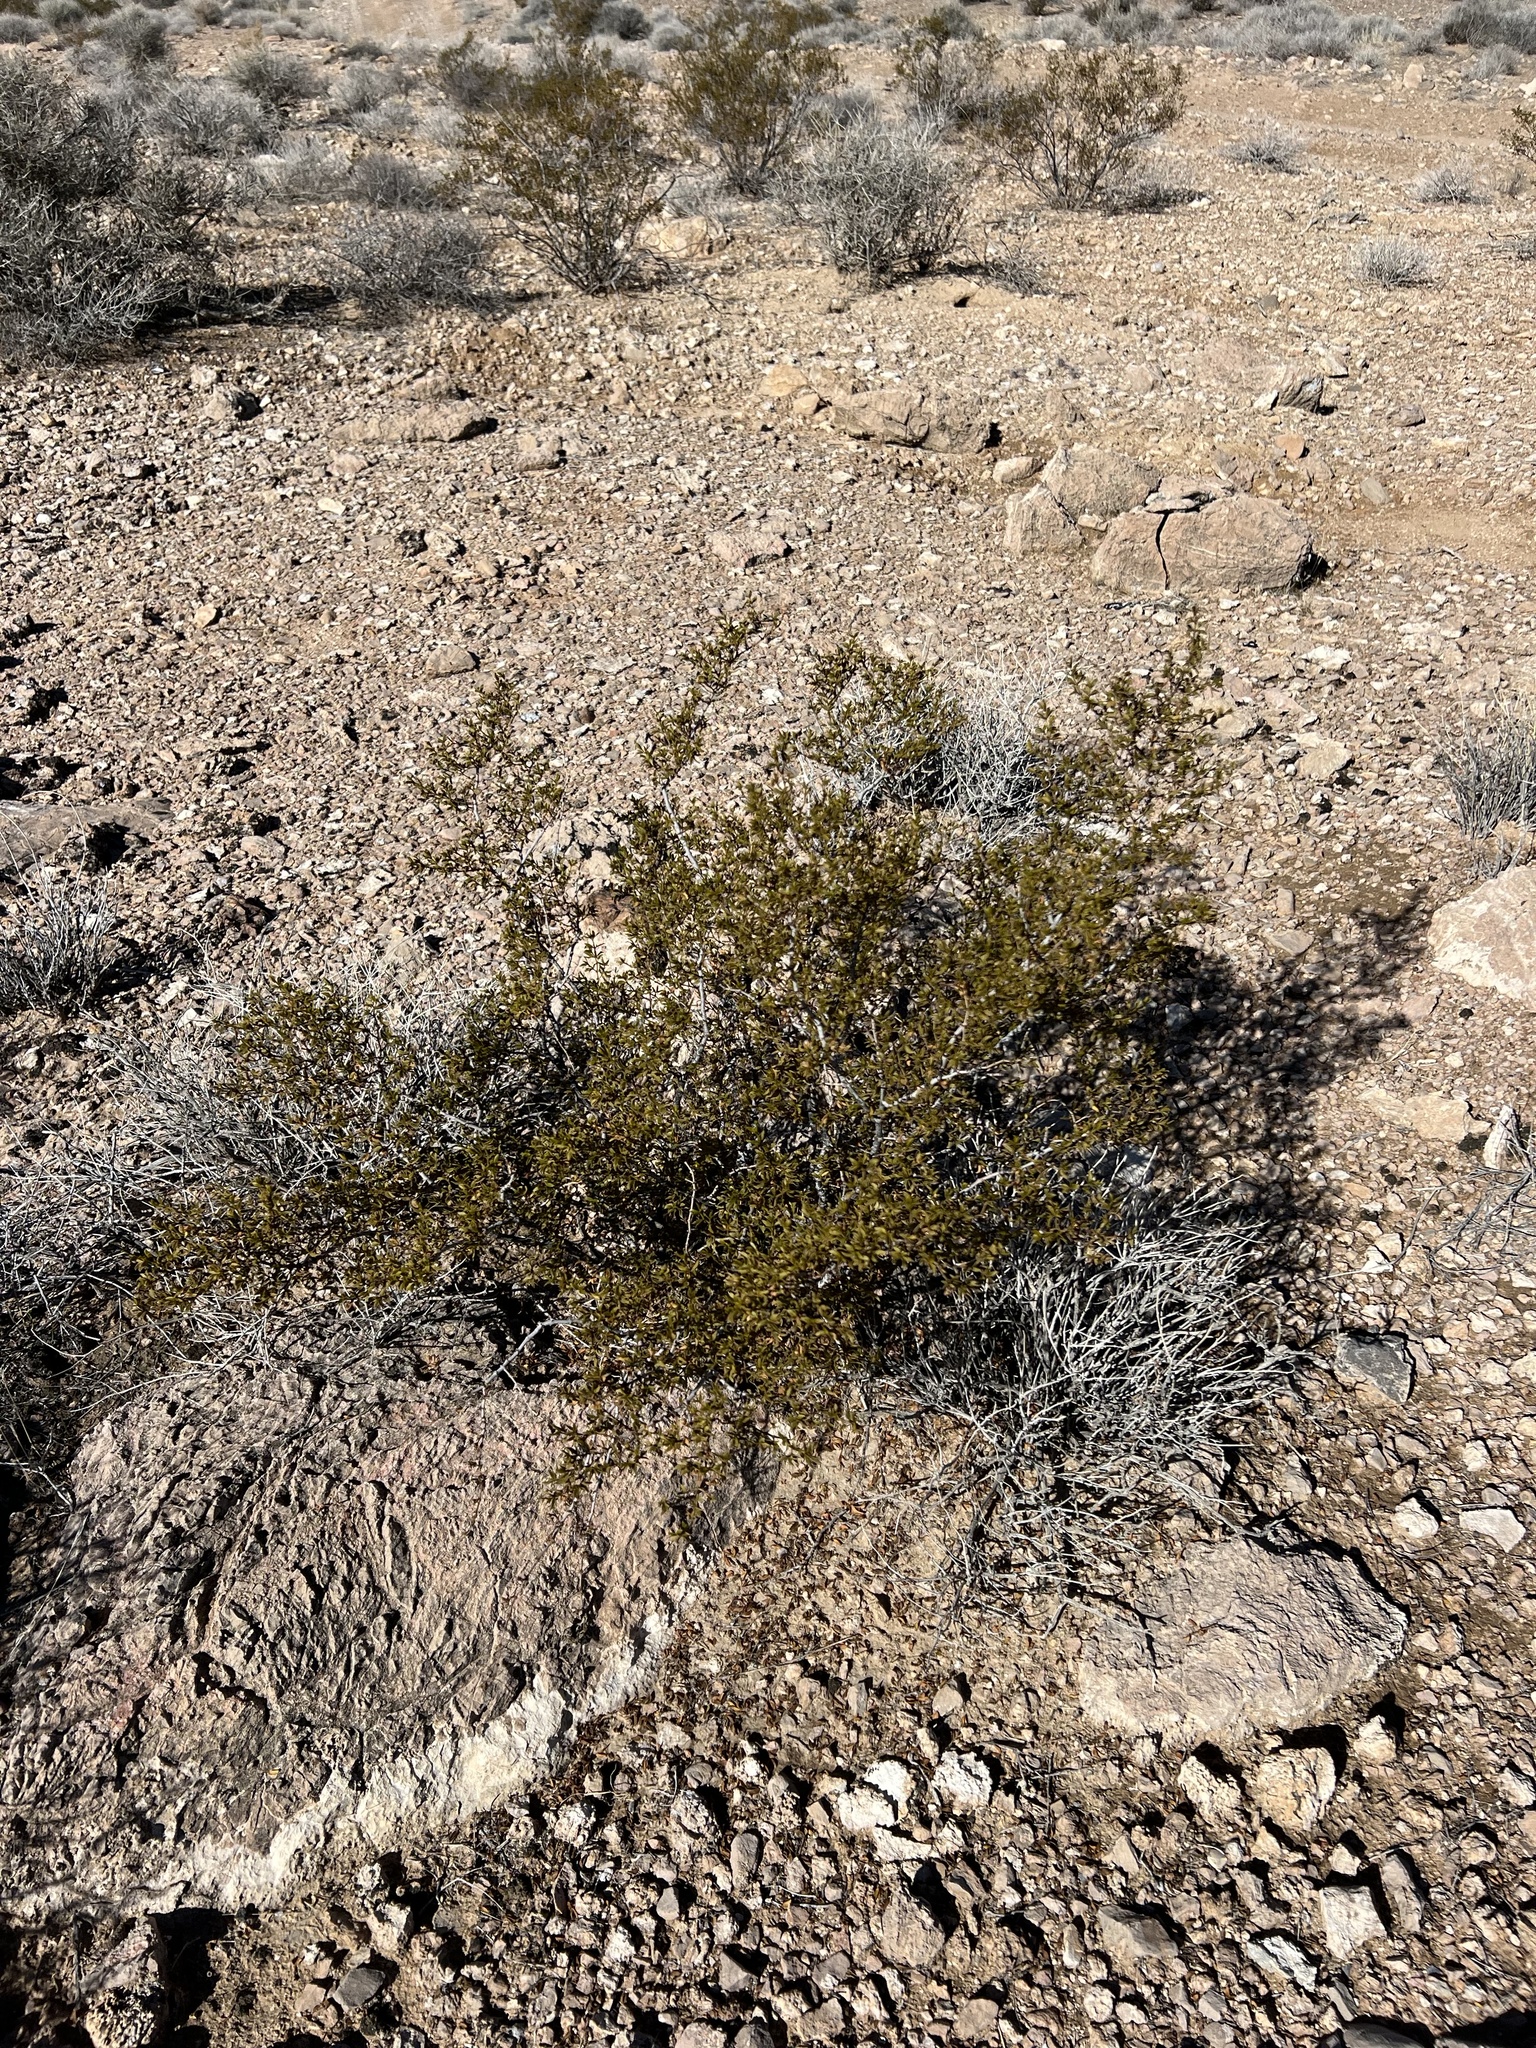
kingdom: Plantae
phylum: Tracheophyta
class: Magnoliopsida
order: Zygophyllales
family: Zygophyllaceae
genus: Larrea
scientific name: Larrea tridentata
